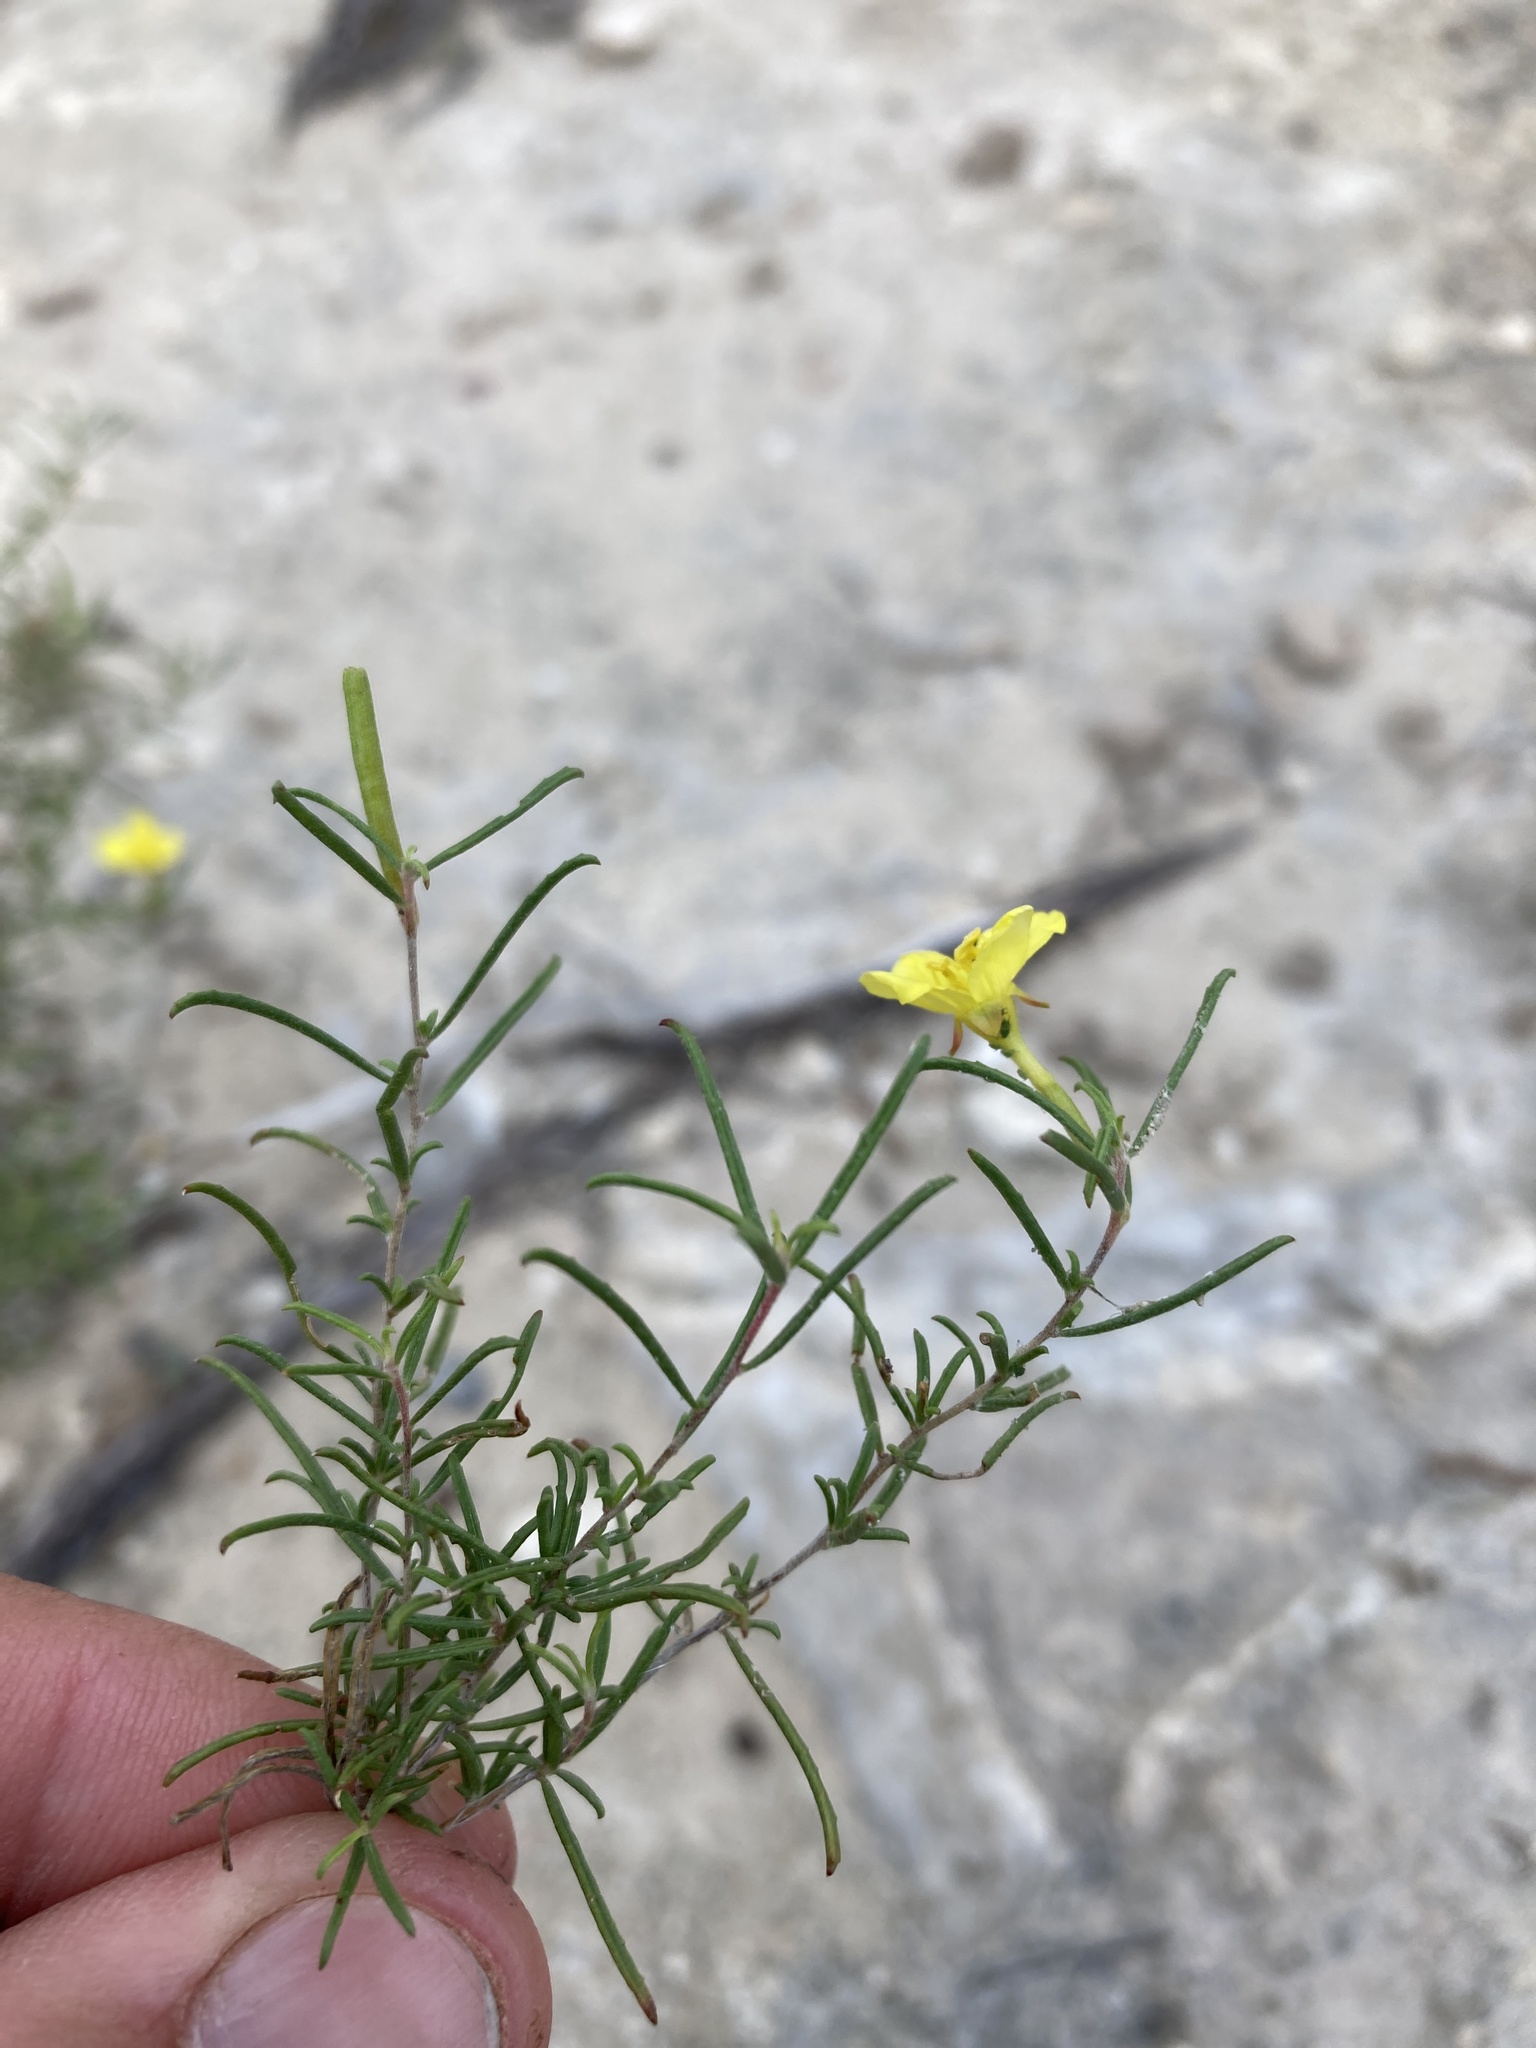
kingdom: Plantae
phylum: Tracheophyta
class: Magnoliopsida
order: Myrtales
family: Onagraceae
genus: Oenothera
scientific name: Oenothera gayleana
